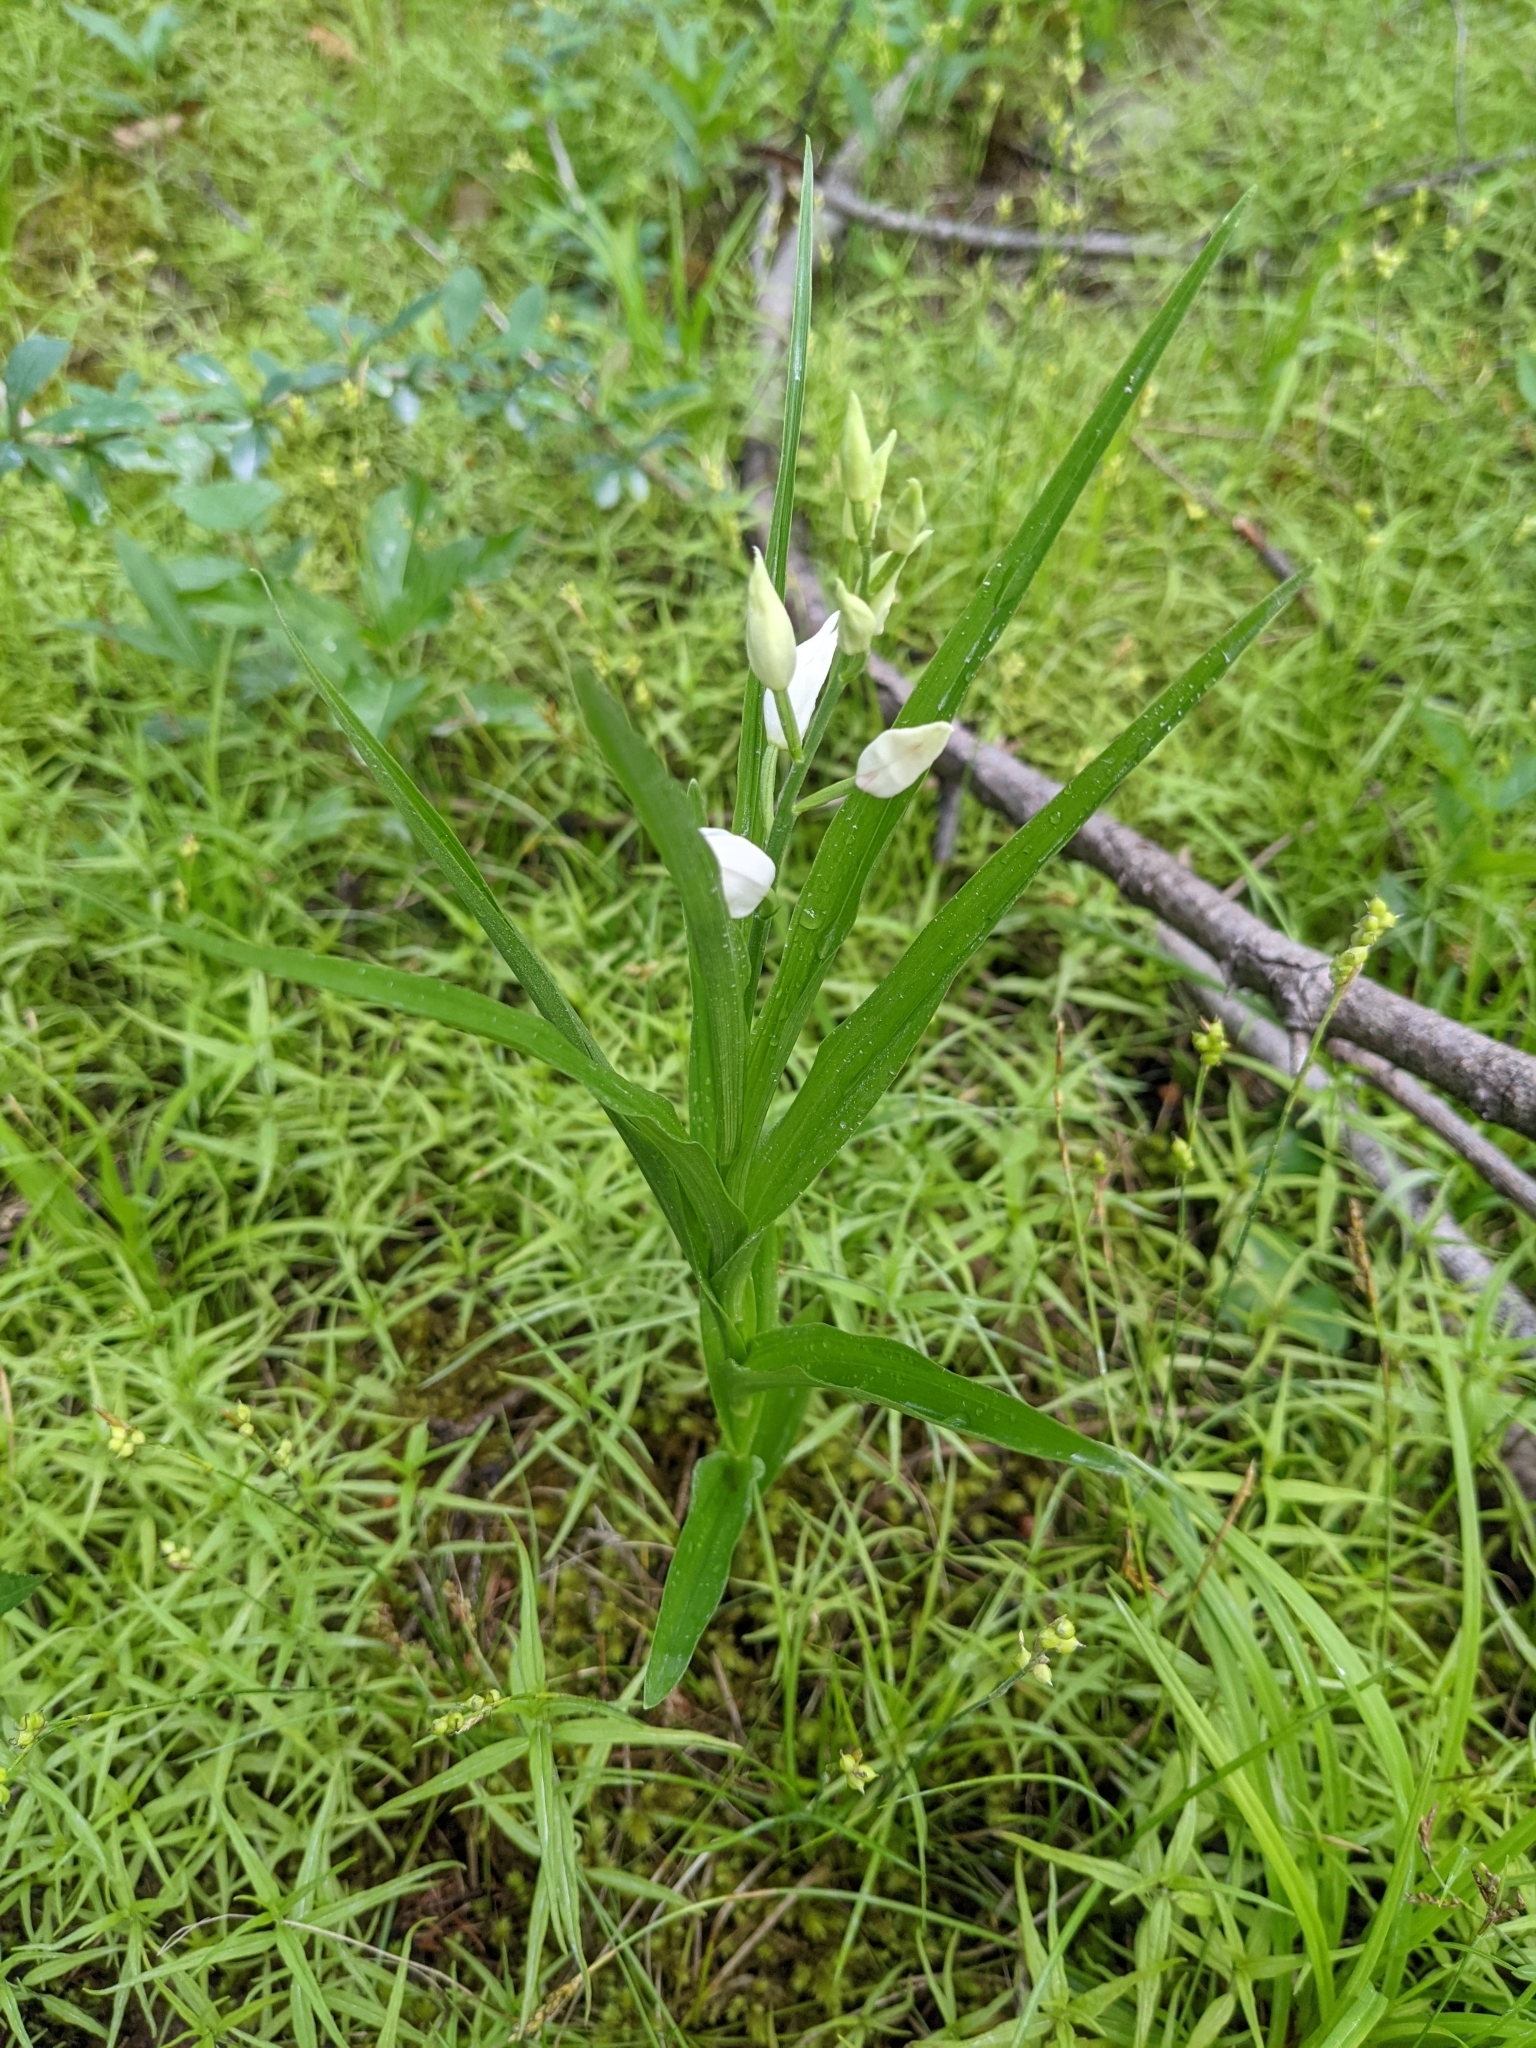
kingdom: Plantae
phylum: Tracheophyta
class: Liliopsida
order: Asparagales
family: Orchidaceae
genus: Cephalanthera
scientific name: Cephalanthera longifolia
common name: Narrow-leaved helleborine
